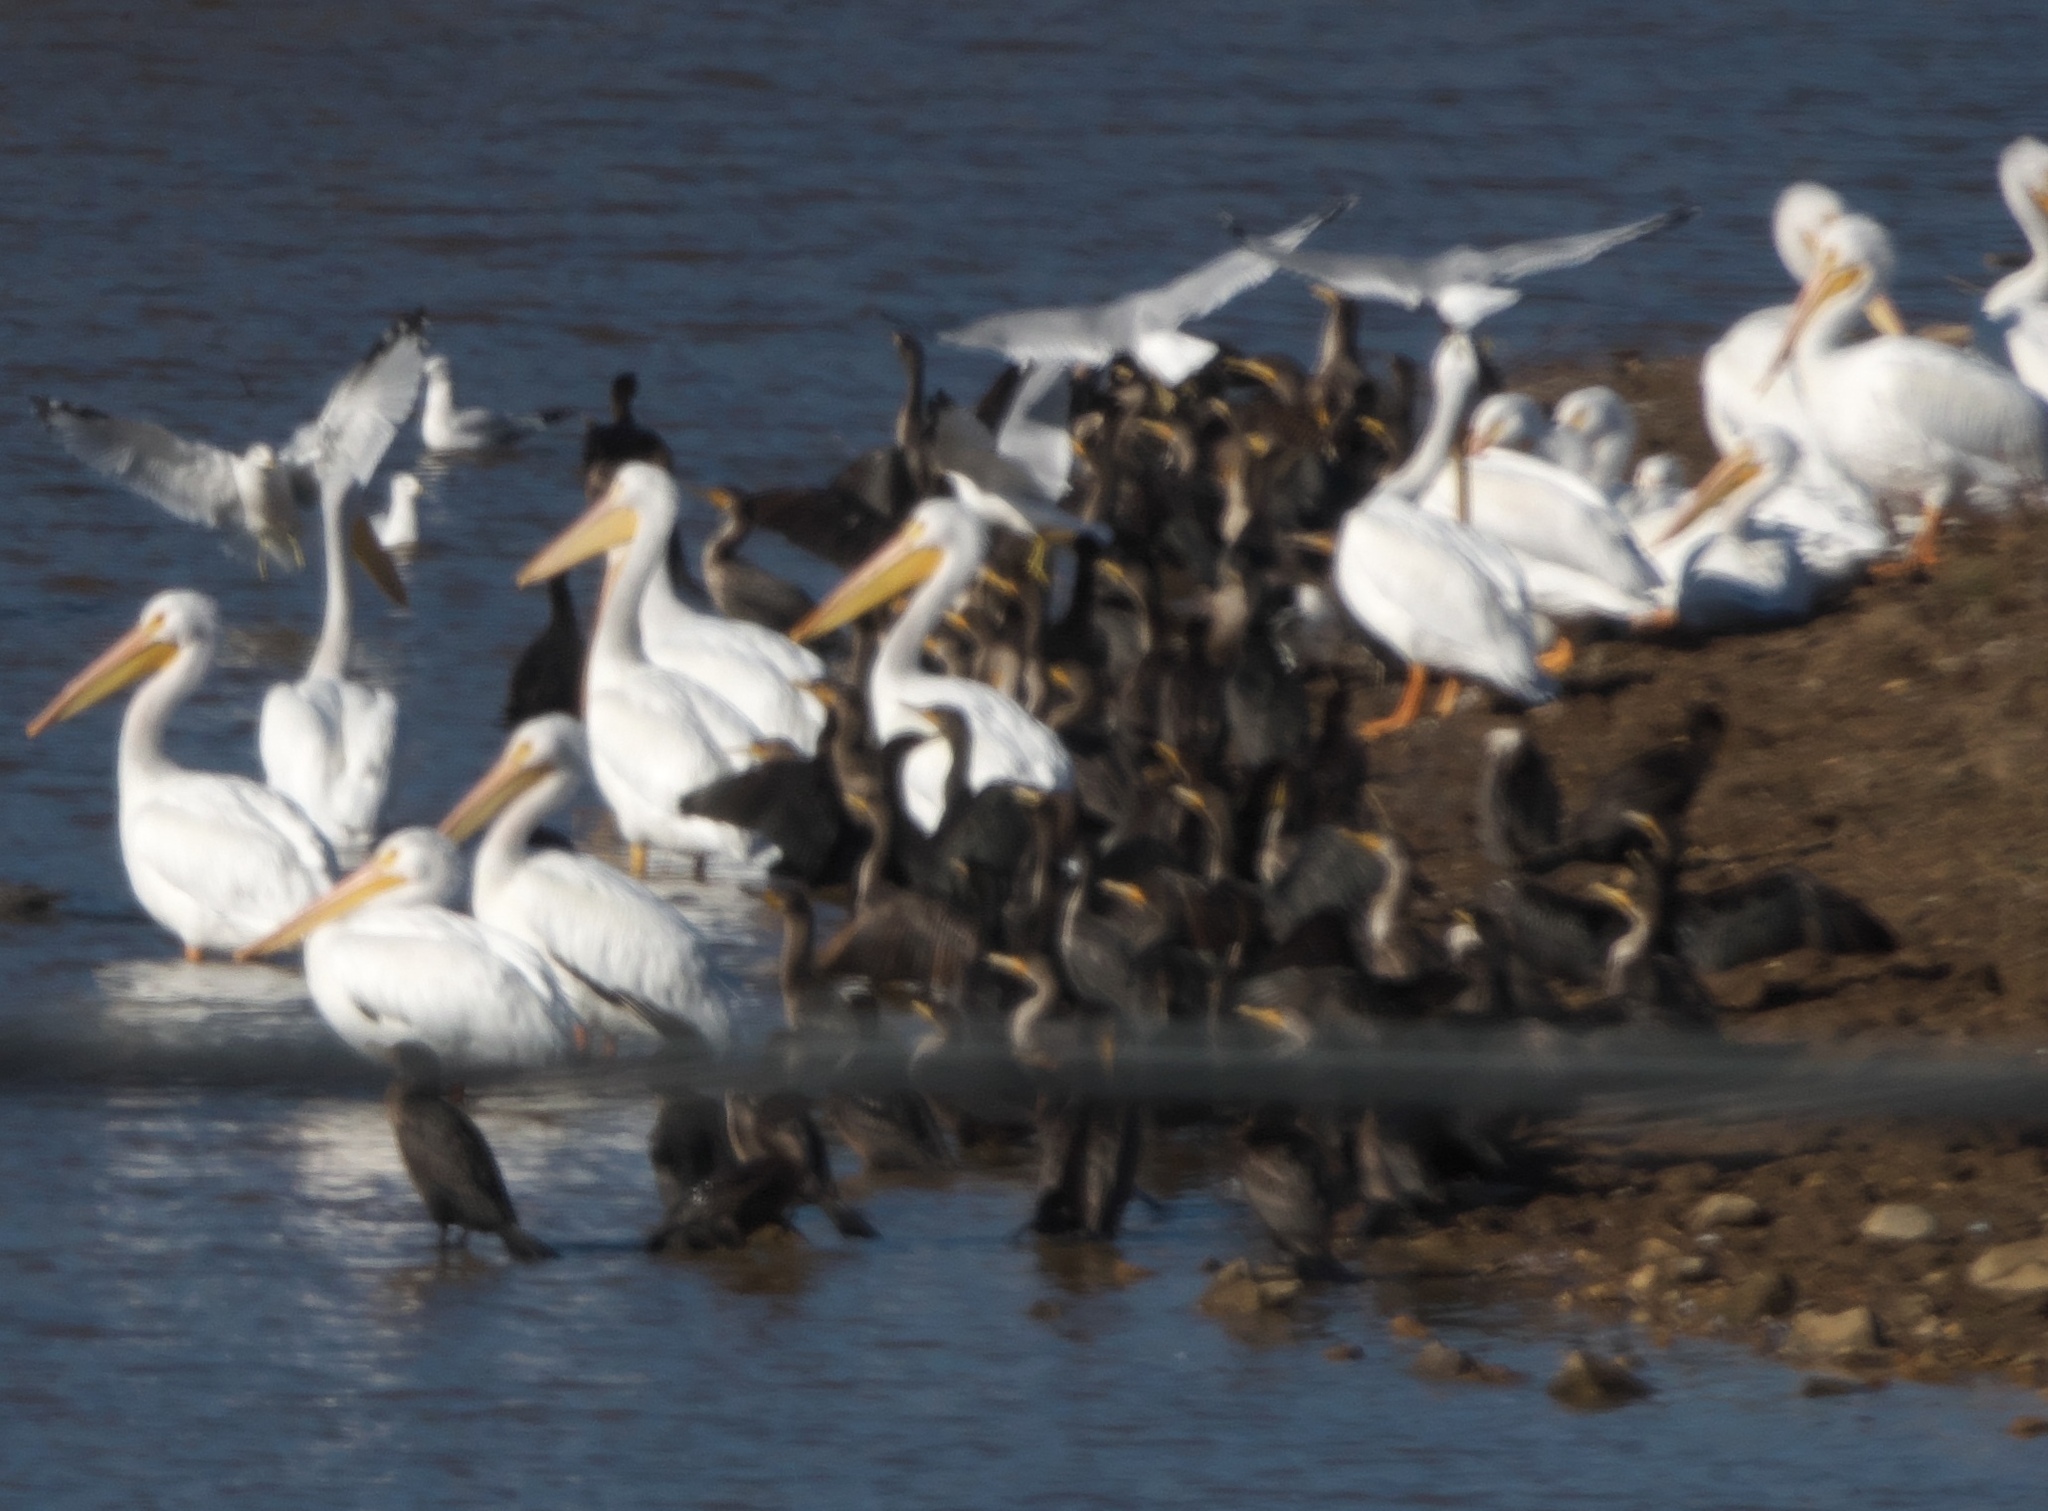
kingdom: Animalia
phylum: Chordata
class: Aves
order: Suliformes
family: Phalacrocoracidae
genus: Phalacrocorax
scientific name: Phalacrocorax auritus
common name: Double-crested cormorant
